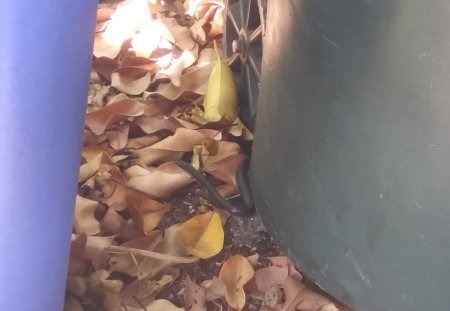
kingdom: Animalia
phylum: Chordata
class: Squamata
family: Colubridae
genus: Coluber
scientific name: Coluber constrictor
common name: Eastern racer
